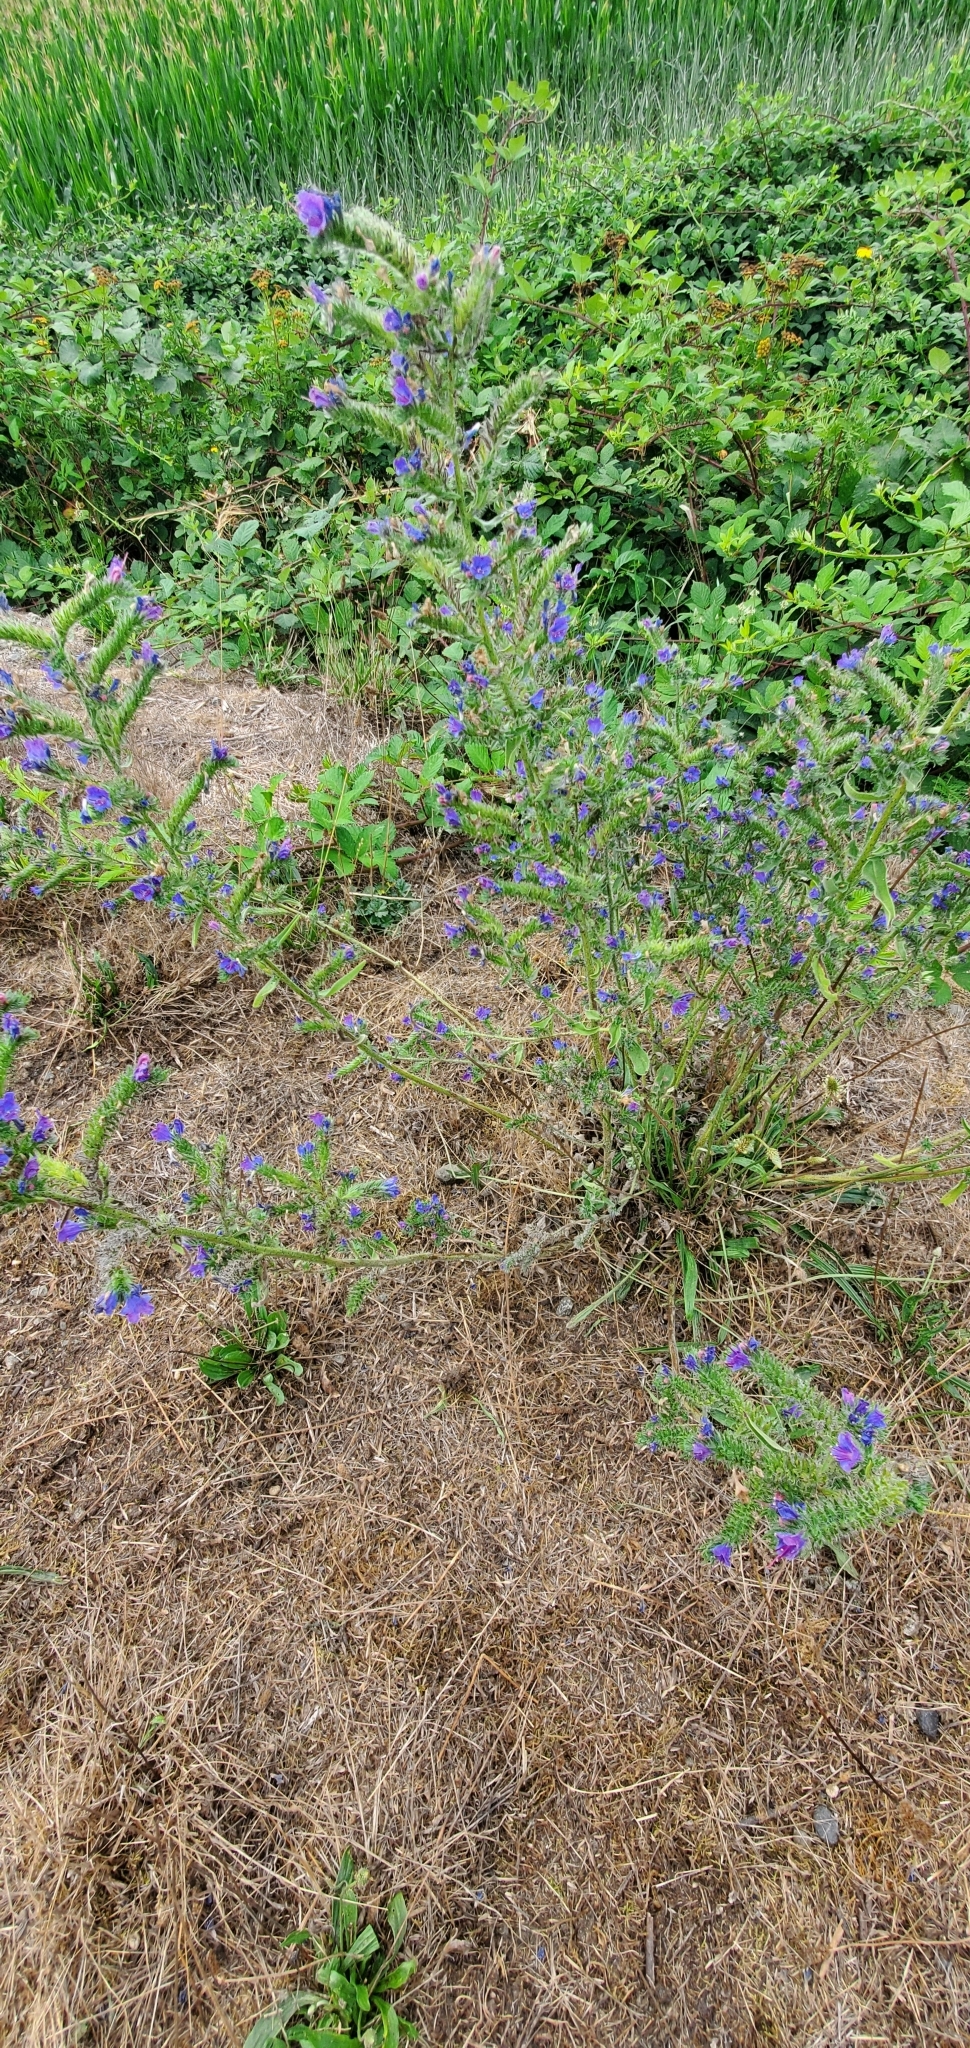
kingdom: Plantae
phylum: Tracheophyta
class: Magnoliopsida
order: Boraginales
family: Boraginaceae
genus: Echium
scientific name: Echium vulgare
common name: Common viper's bugloss
